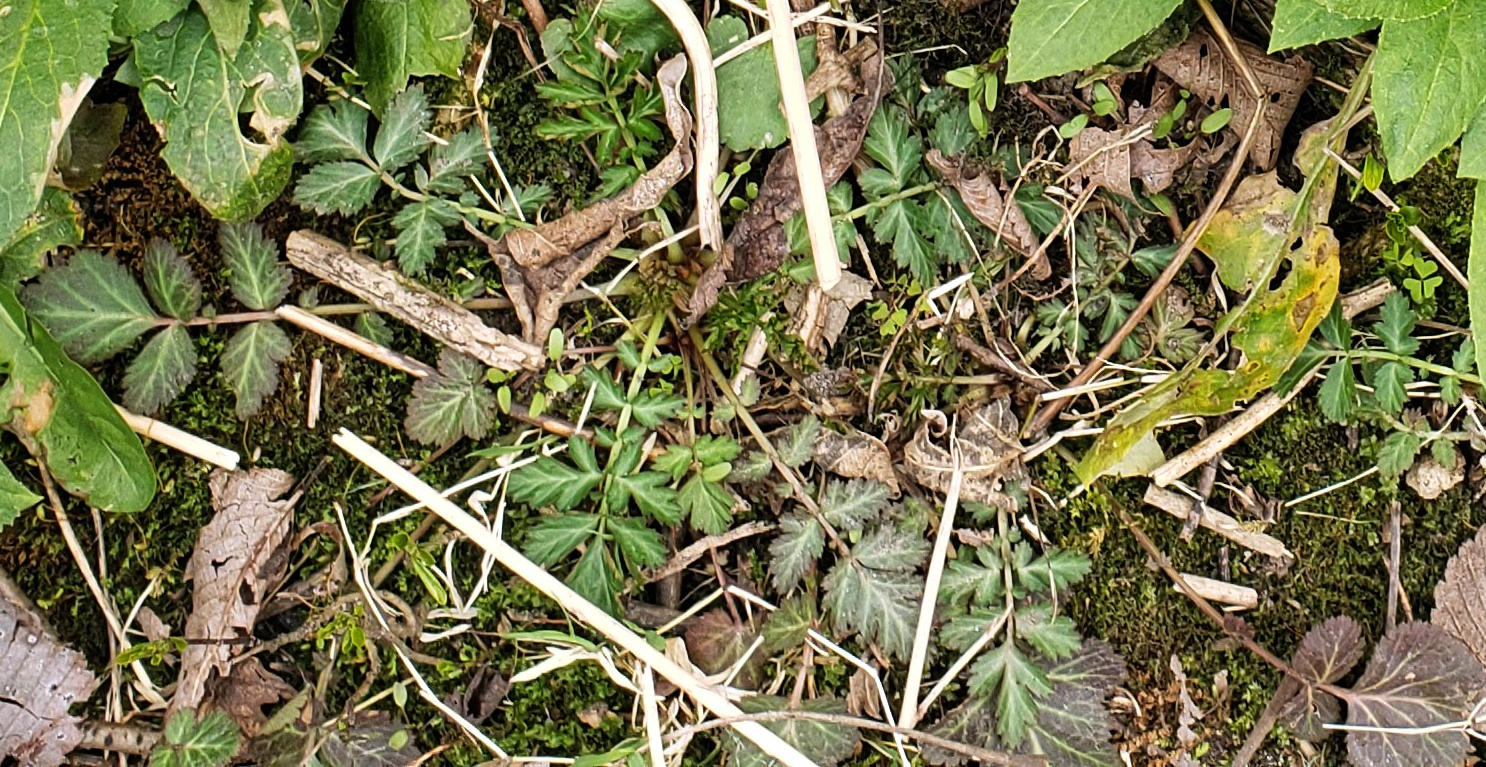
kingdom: Plantae
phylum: Tracheophyta
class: Magnoliopsida
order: Rosales
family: Rosaceae
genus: Geum
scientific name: Geum canadense
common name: White avens
